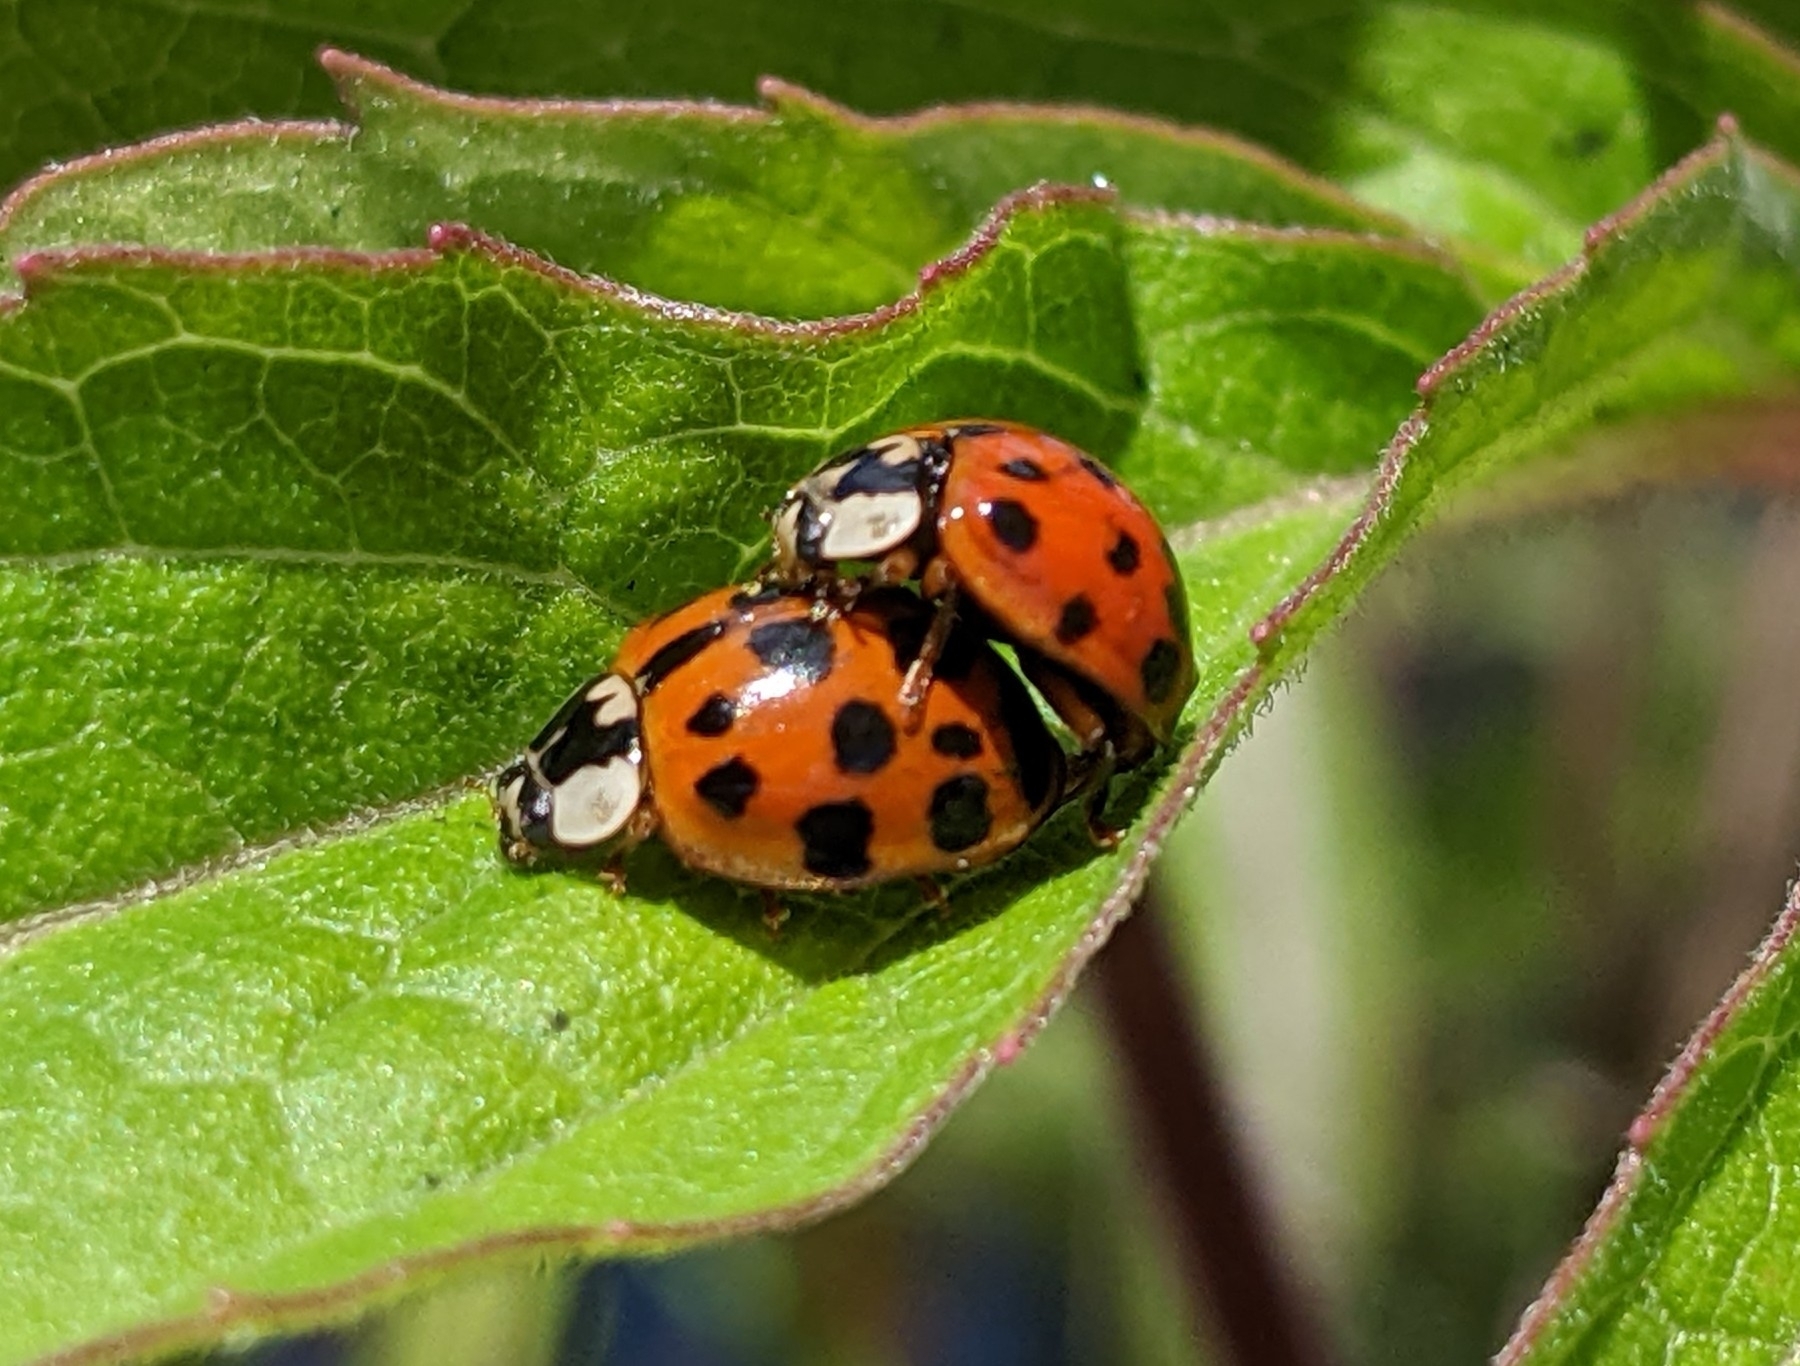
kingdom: Animalia
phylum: Arthropoda
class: Insecta
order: Coleoptera
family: Coccinellidae
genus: Harmonia
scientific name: Harmonia axyridis
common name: Harlequin ladybird
